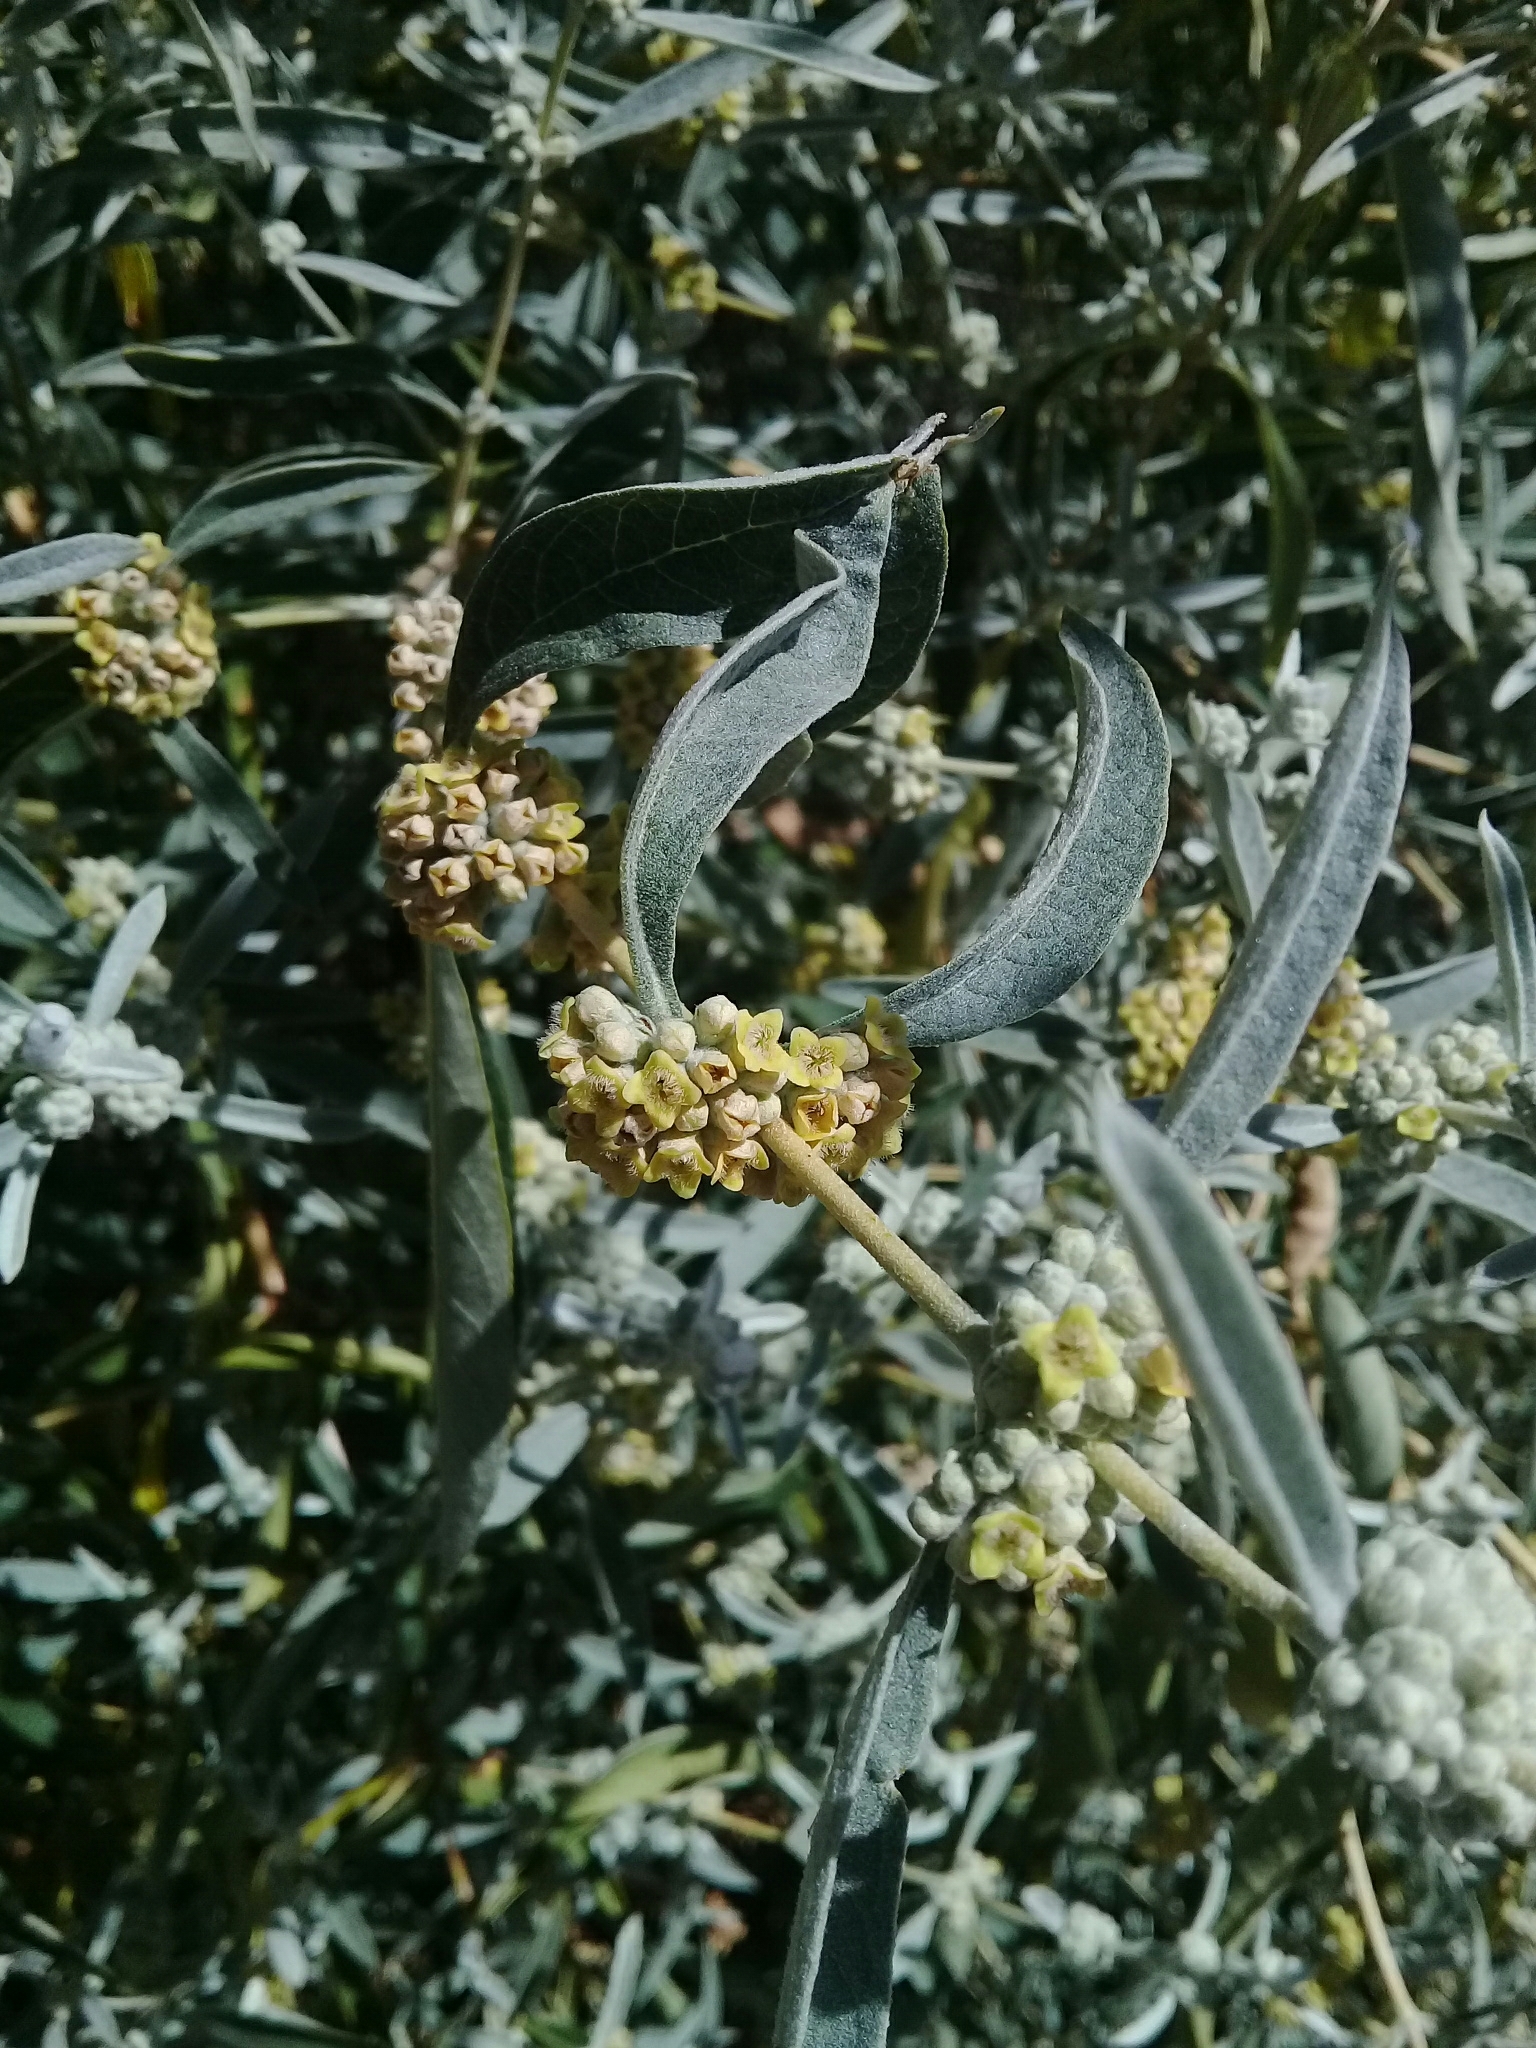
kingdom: Plantae
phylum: Tracheophyta
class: Magnoliopsida
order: Lamiales
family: Scrophulariaceae
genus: Buddleja
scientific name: Buddleja sessiliflora
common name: Rio grande butterfly-bush
